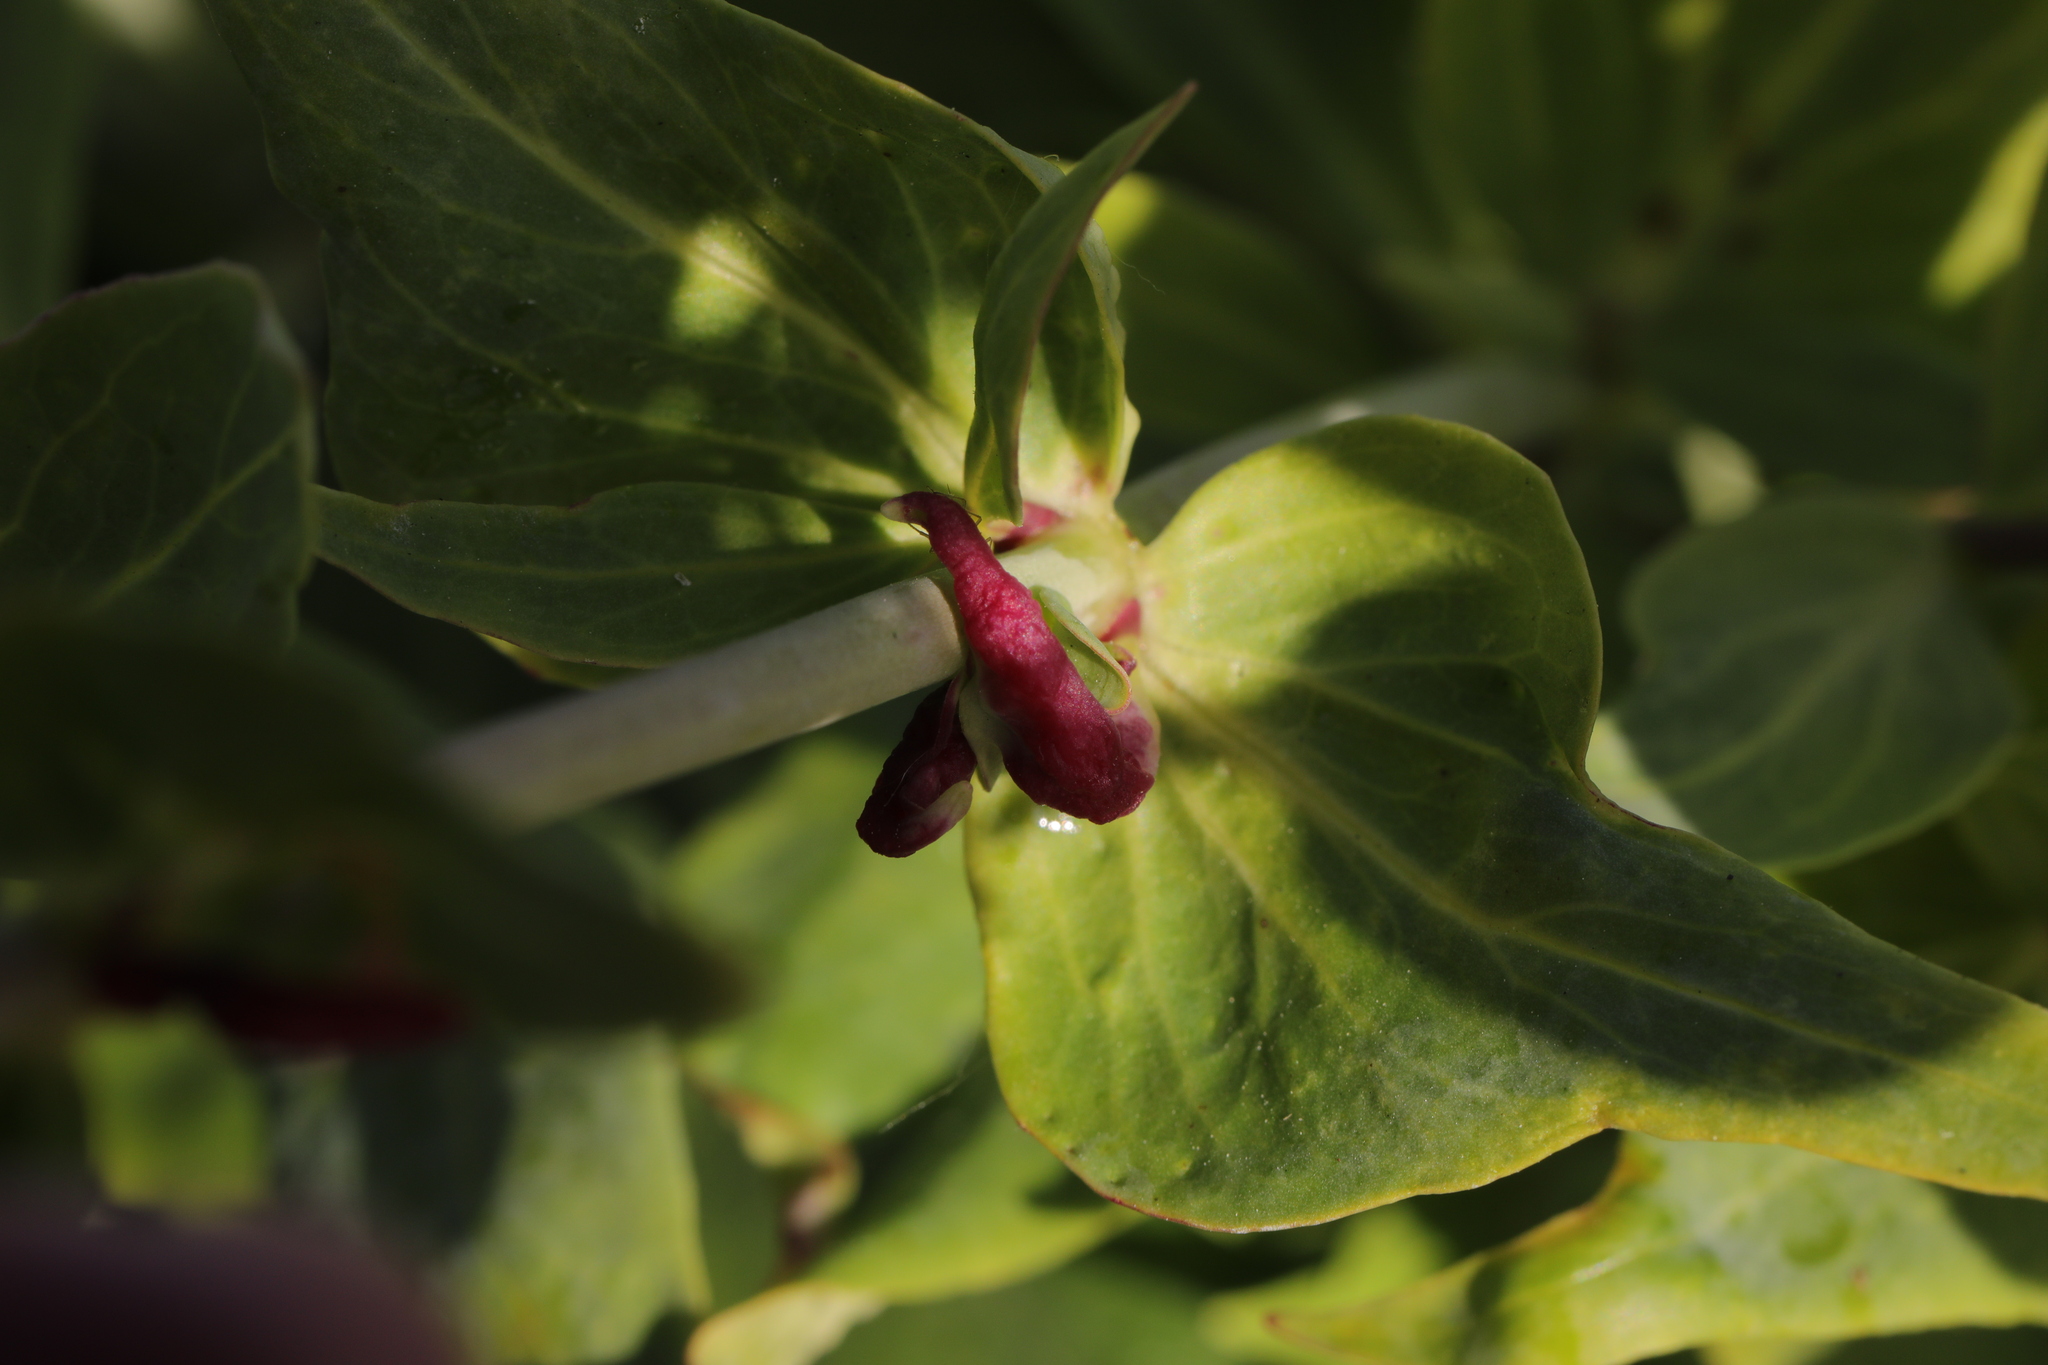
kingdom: Animalia
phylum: Arthropoda
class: Insecta
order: Hemiptera
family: Triozidae
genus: Trioza
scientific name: Trioza centranthi
